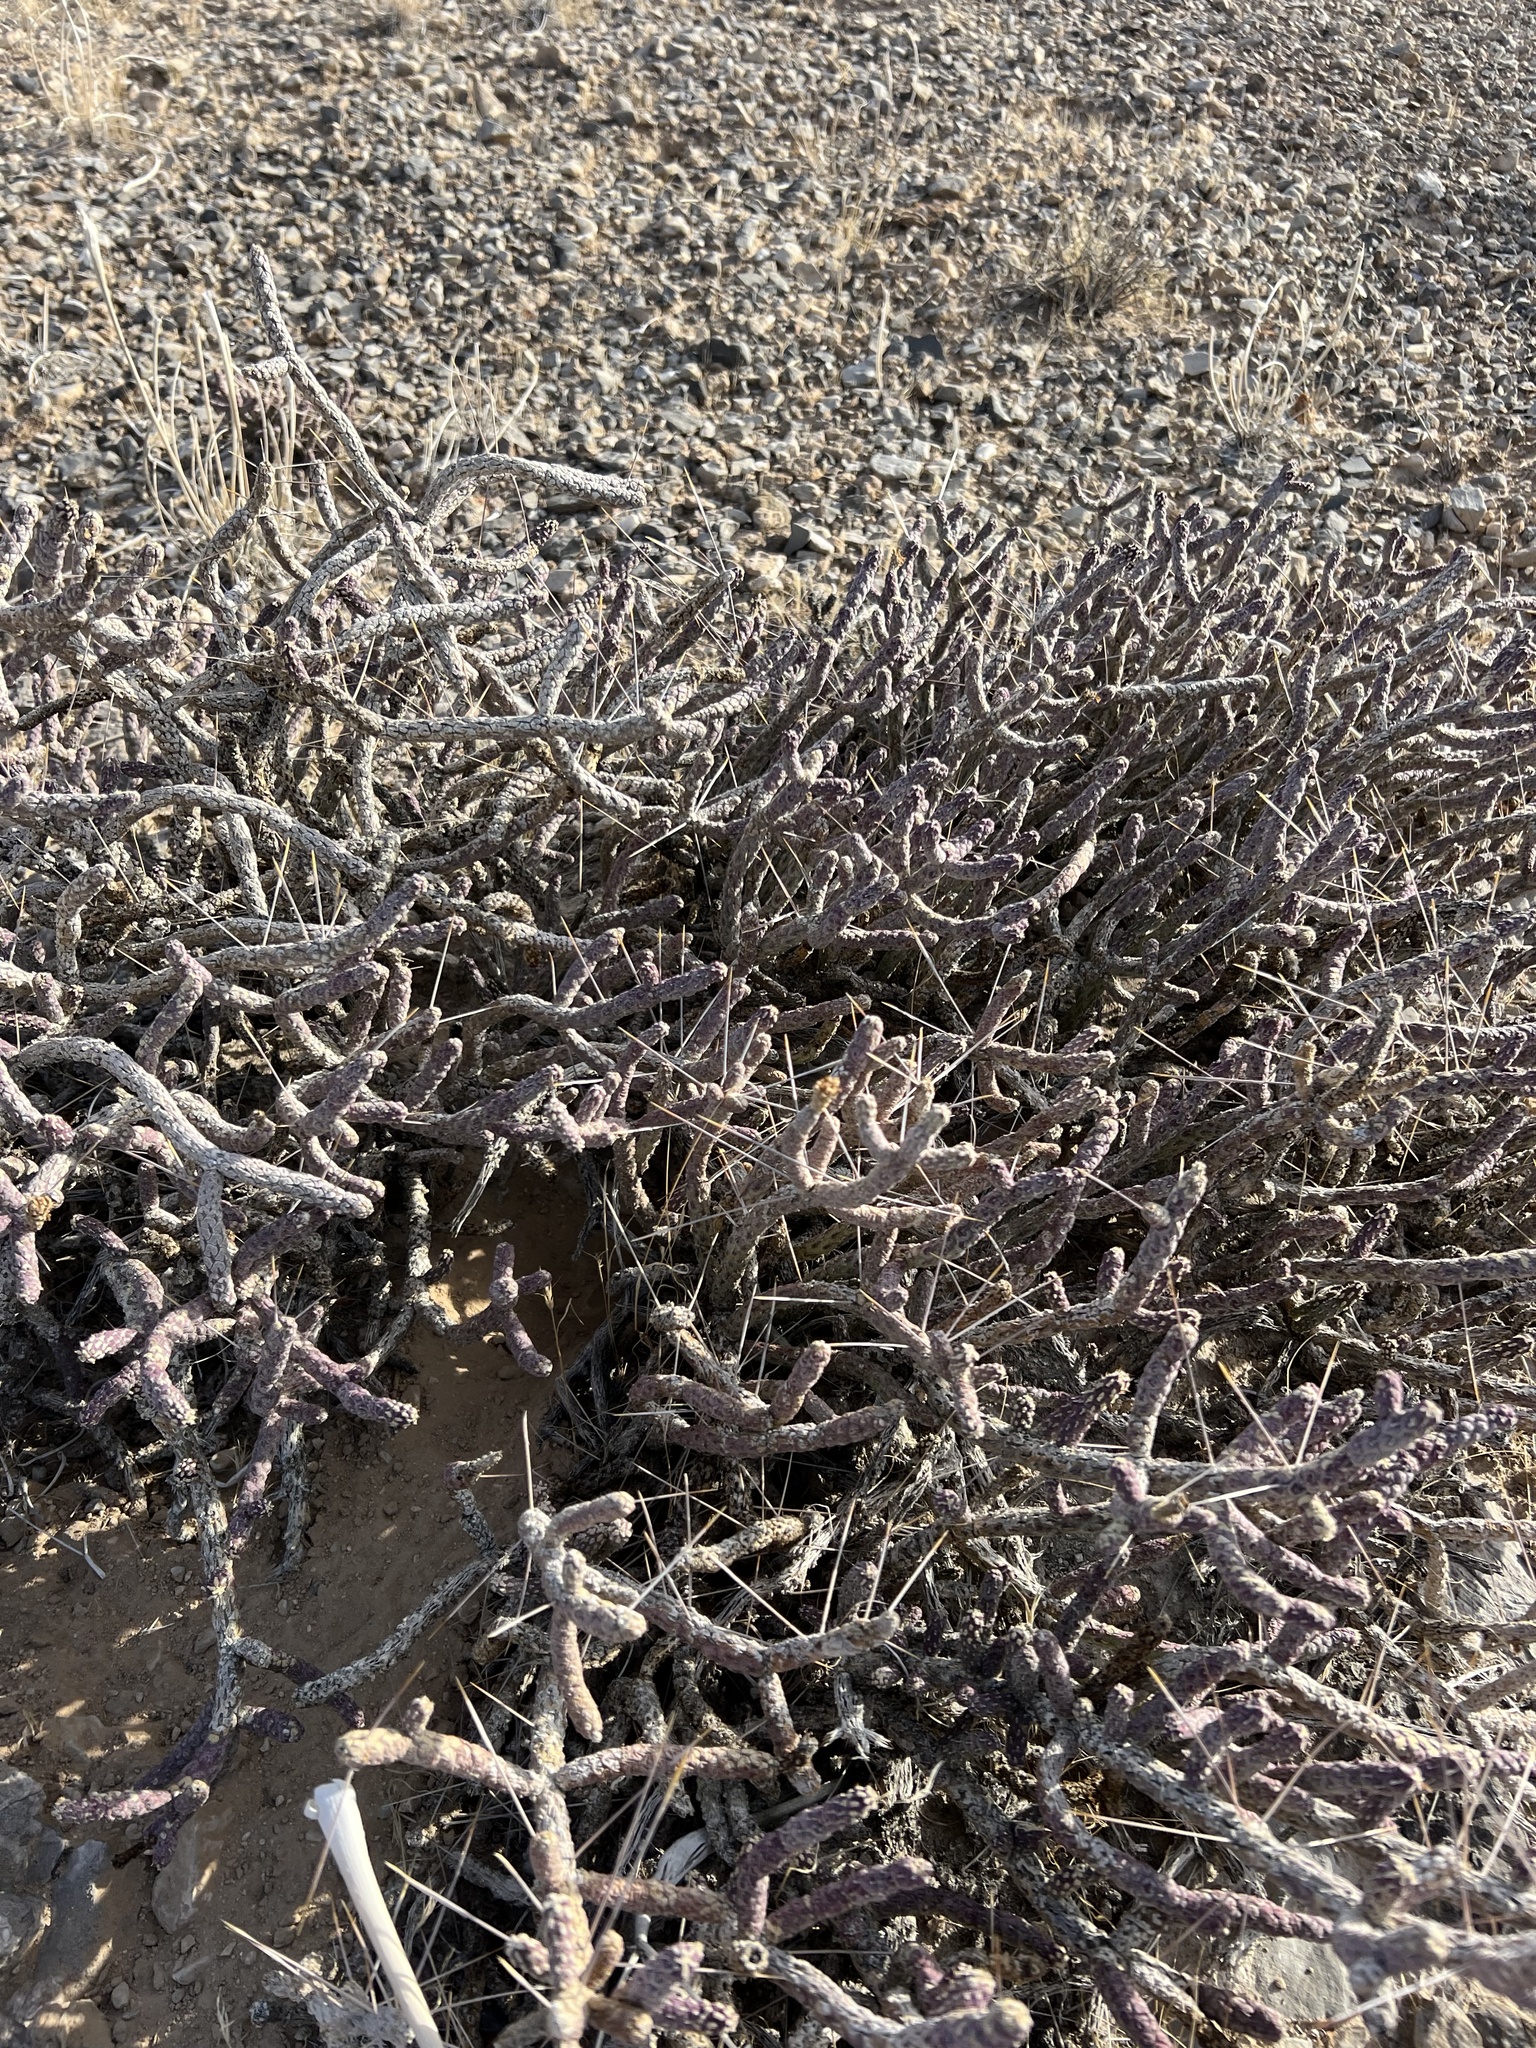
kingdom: Plantae
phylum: Tracheophyta
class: Magnoliopsida
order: Caryophyllales
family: Cactaceae
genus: Cylindropuntia
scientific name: Cylindropuntia ramosissima
